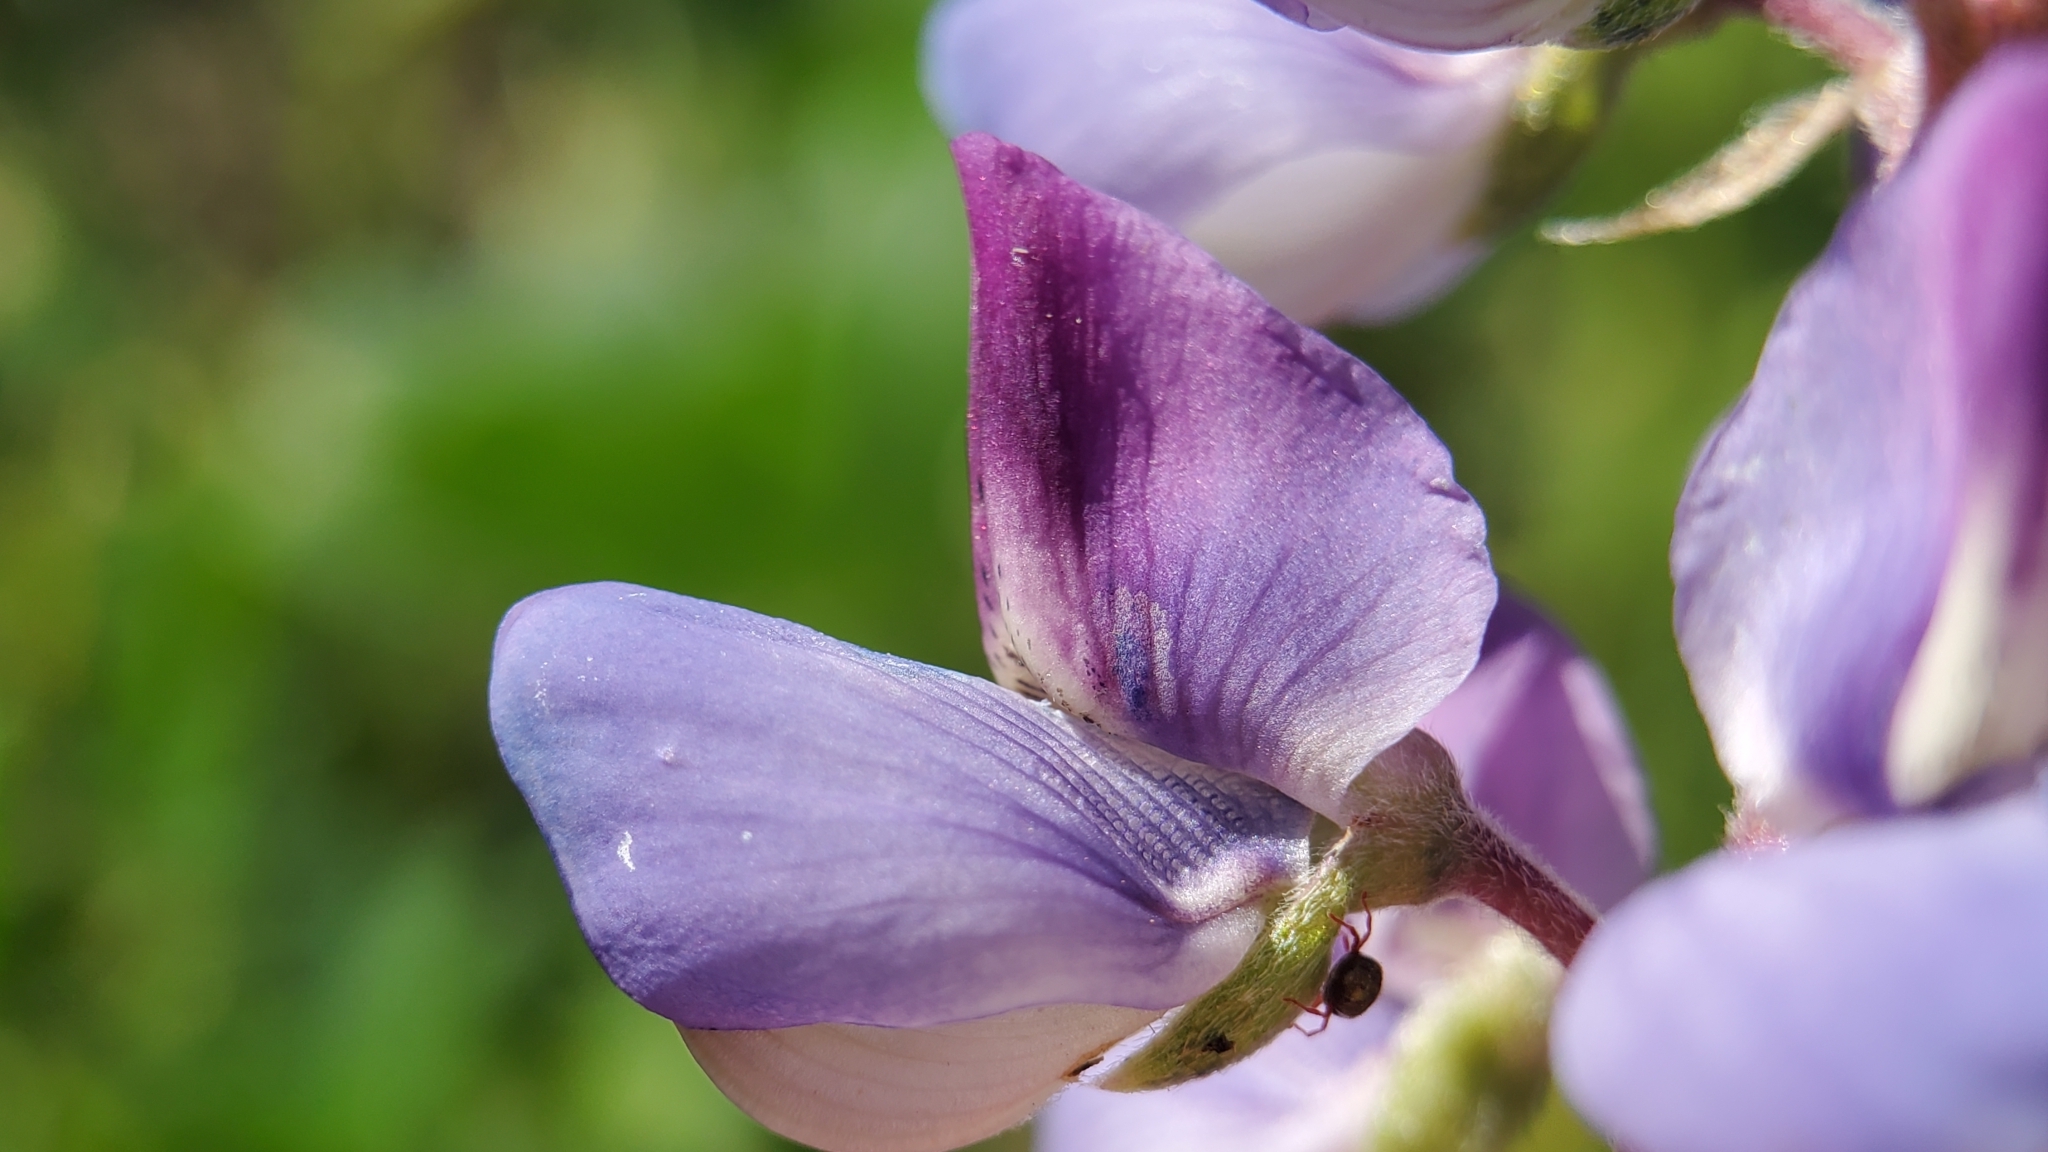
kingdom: Plantae
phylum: Tracheophyta
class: Magnoliopsida
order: Fabales
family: Fabaceae
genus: Lupinus
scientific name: Lupinus succulentus
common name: Arroyo lupine
